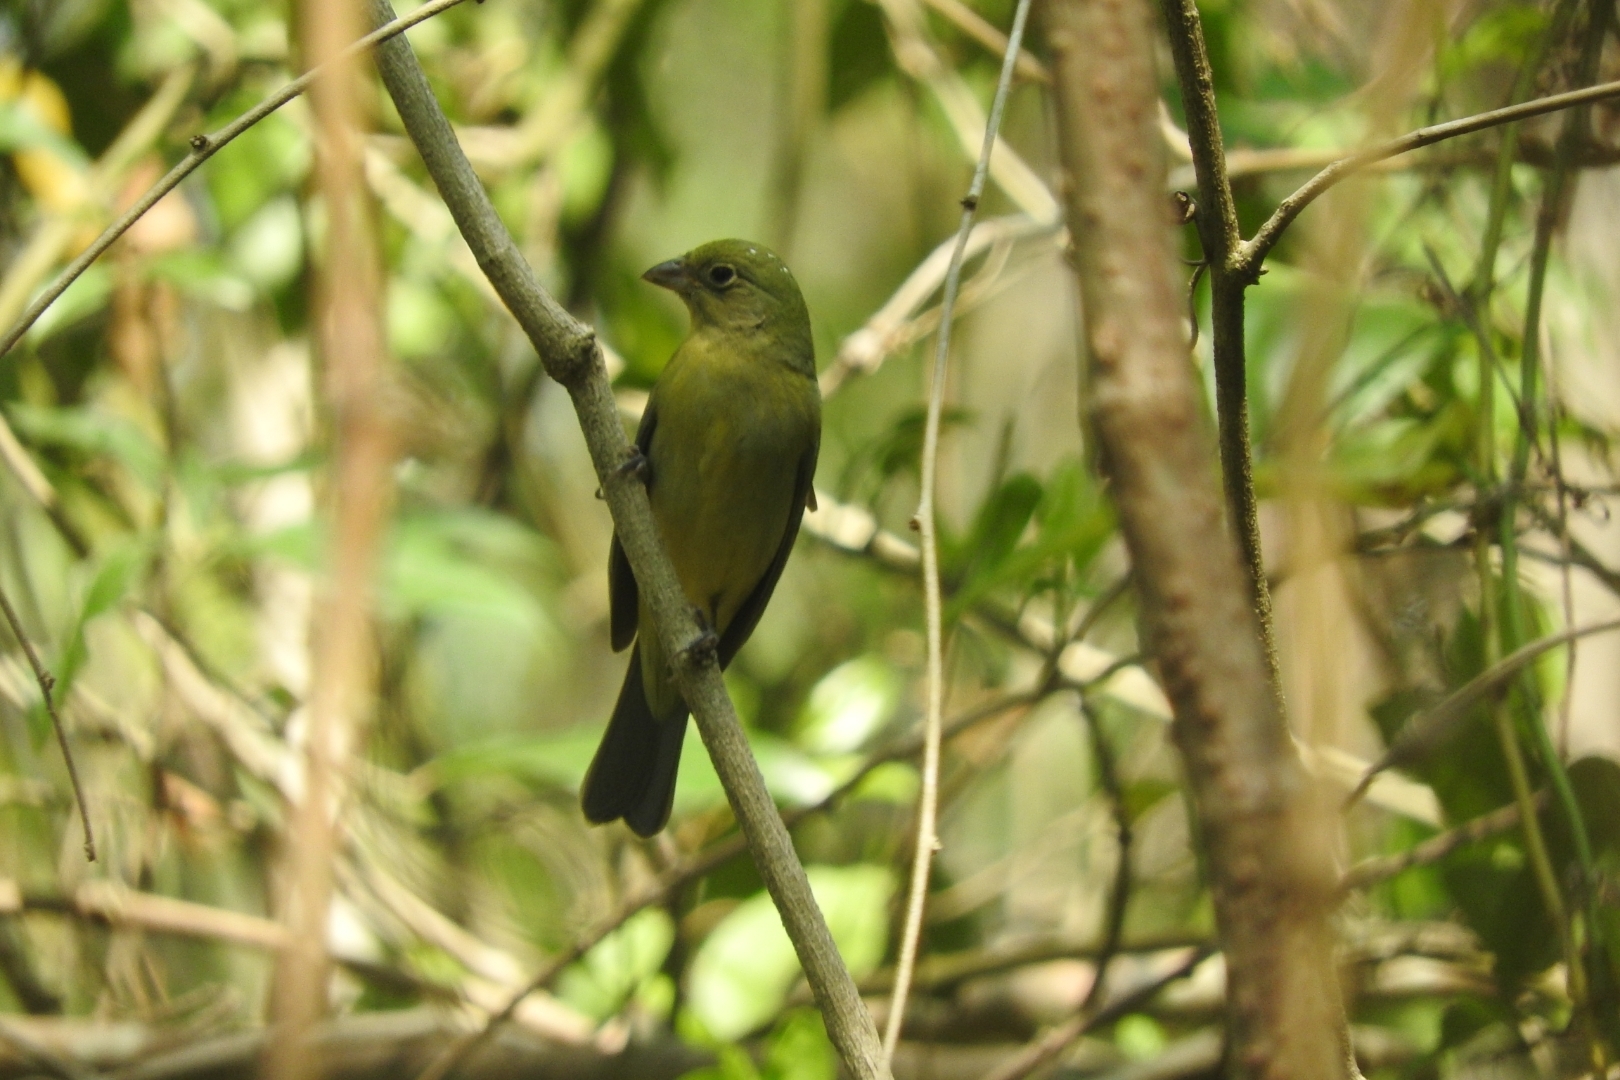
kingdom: Animalia
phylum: Chordata
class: Aves
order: Passeriformes
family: Cardinalidae
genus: Passerina
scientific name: Passerina ciris
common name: Painted bunting
